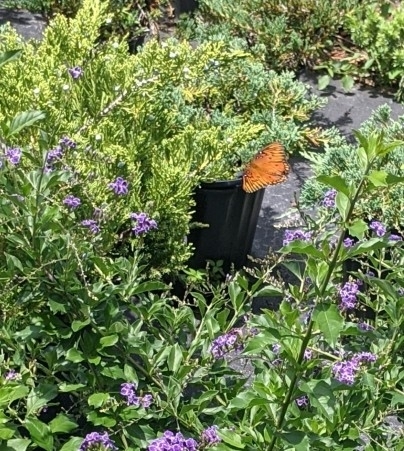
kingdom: Animalia
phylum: Arthropoda
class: Insecta
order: Lepidoptera
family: Nymphalidae
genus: Dione
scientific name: Dione vanillae
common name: Gulf fritillary
